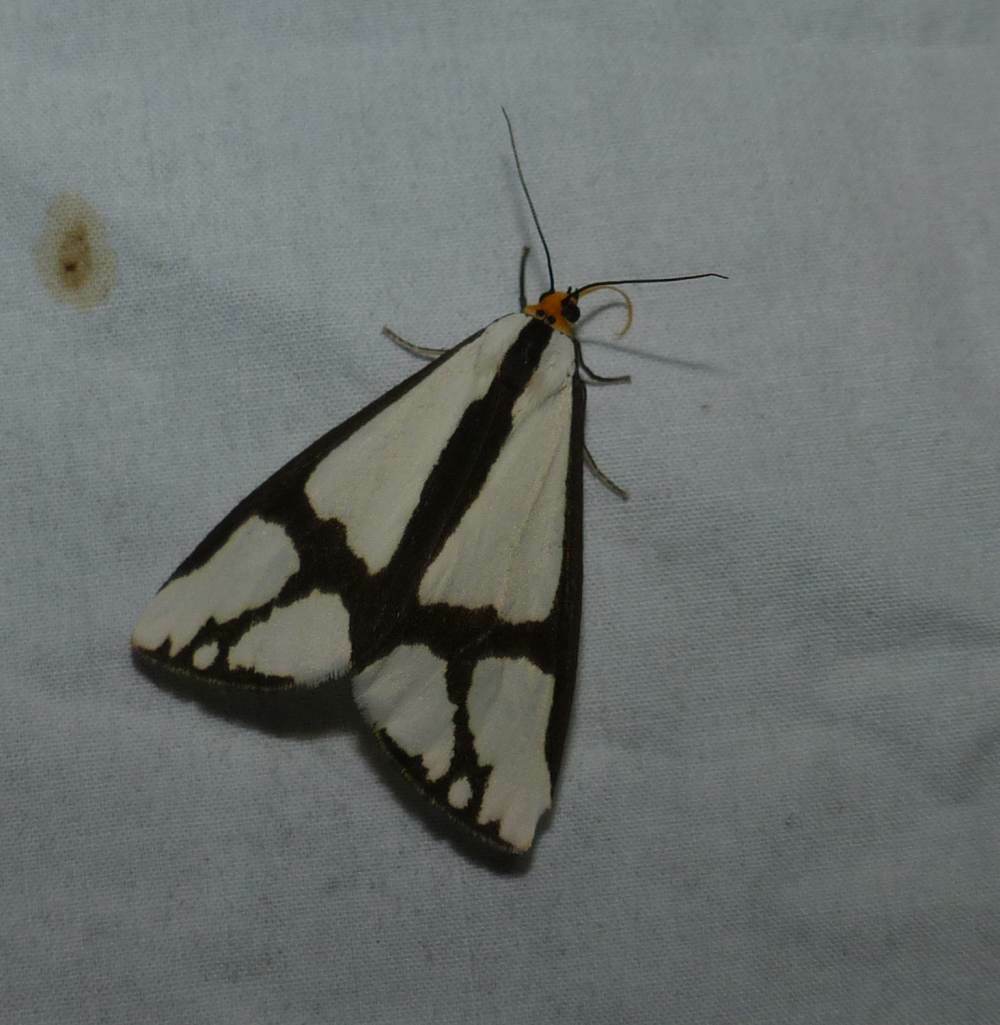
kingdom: Animalia
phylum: Arthropoda
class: Insecta
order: Lepidoptera
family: Erebidae
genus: Haploa
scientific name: Haploa contigua
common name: Neighbor moth
